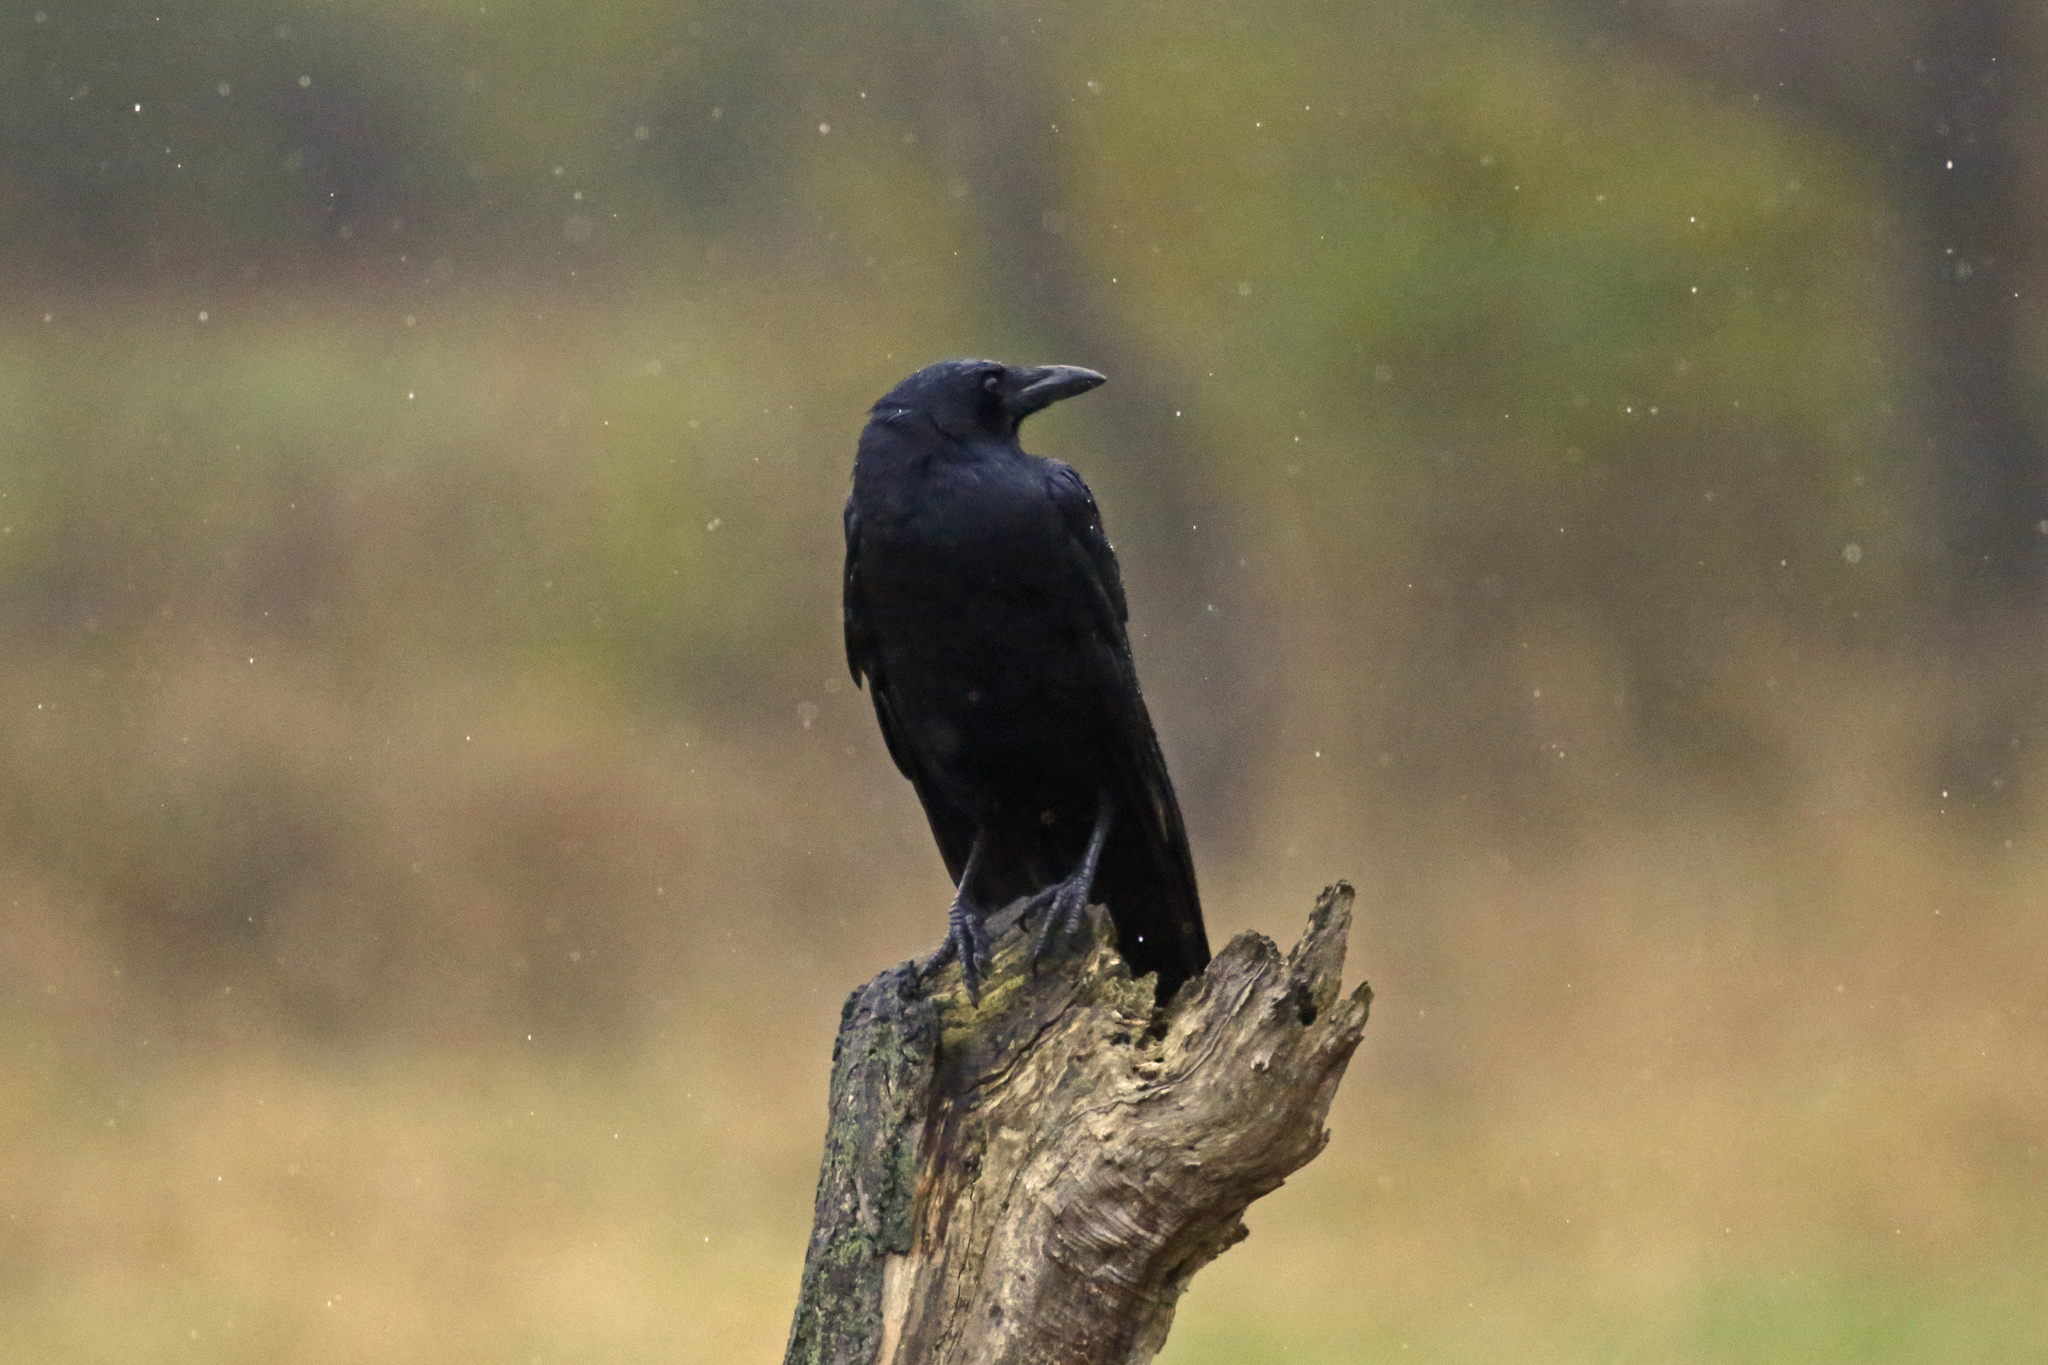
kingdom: Animalia
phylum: Chordata
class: Aves
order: Passeriformes
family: Corvidae
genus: Corvus
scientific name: Corvus ossifragus
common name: Fish crow
